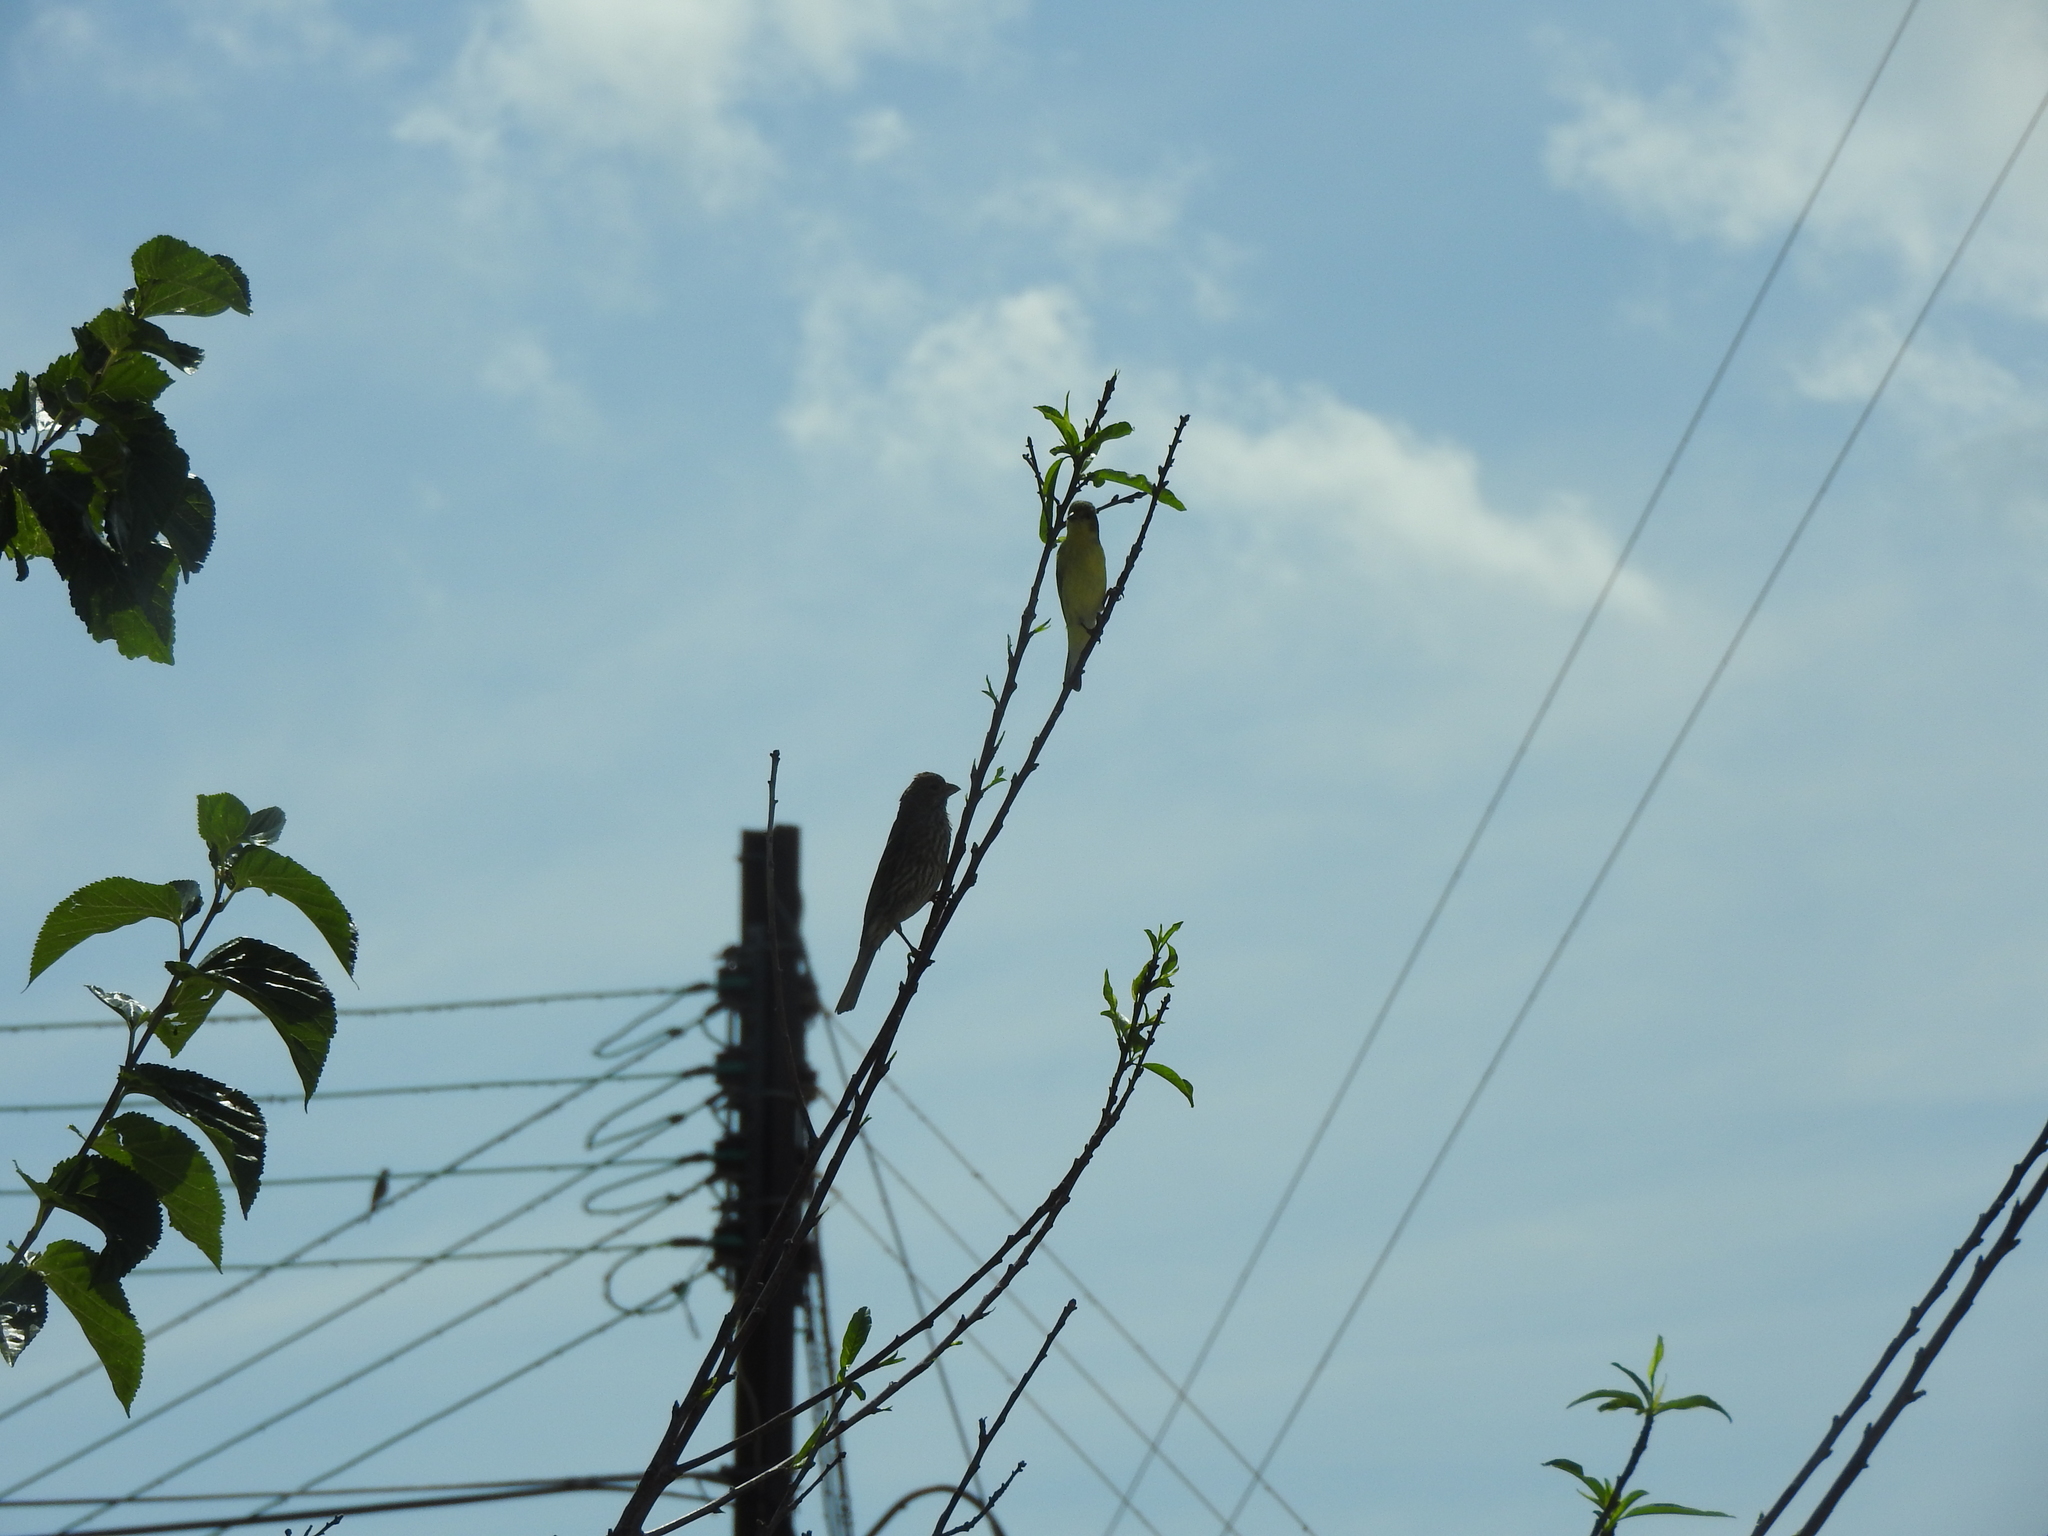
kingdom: Animalia
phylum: Chordata
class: Aves
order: Passeriformes
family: Fringillidae
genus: Haemorhous
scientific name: Haemorhous mexicanus
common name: House finch
